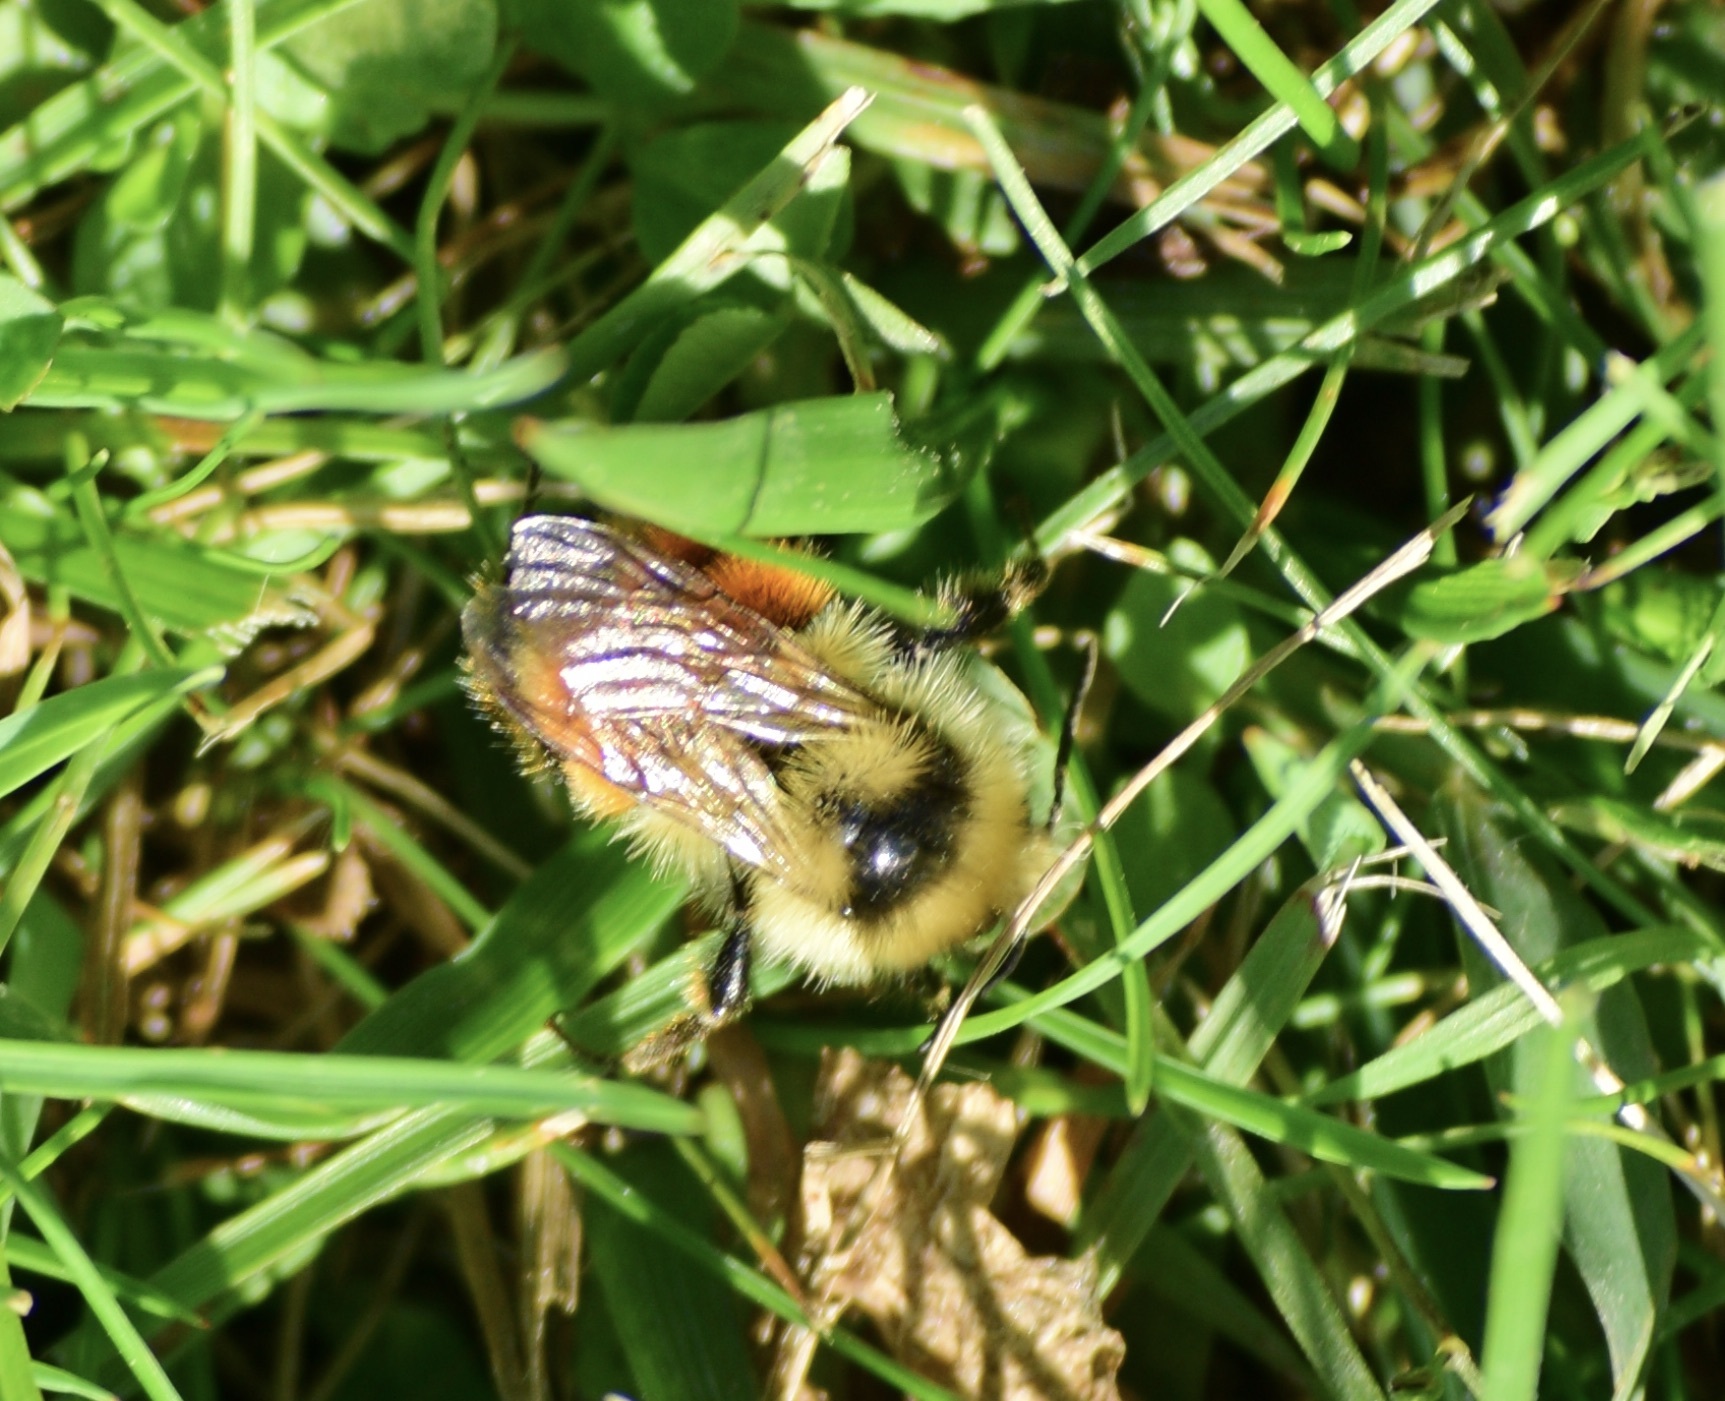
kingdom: Animalia
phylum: Arthropoda
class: Insecta
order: Hymenoptera
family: Apidae
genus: Bombus
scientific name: Bombus ternarius
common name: Tri-colored bumble bee
